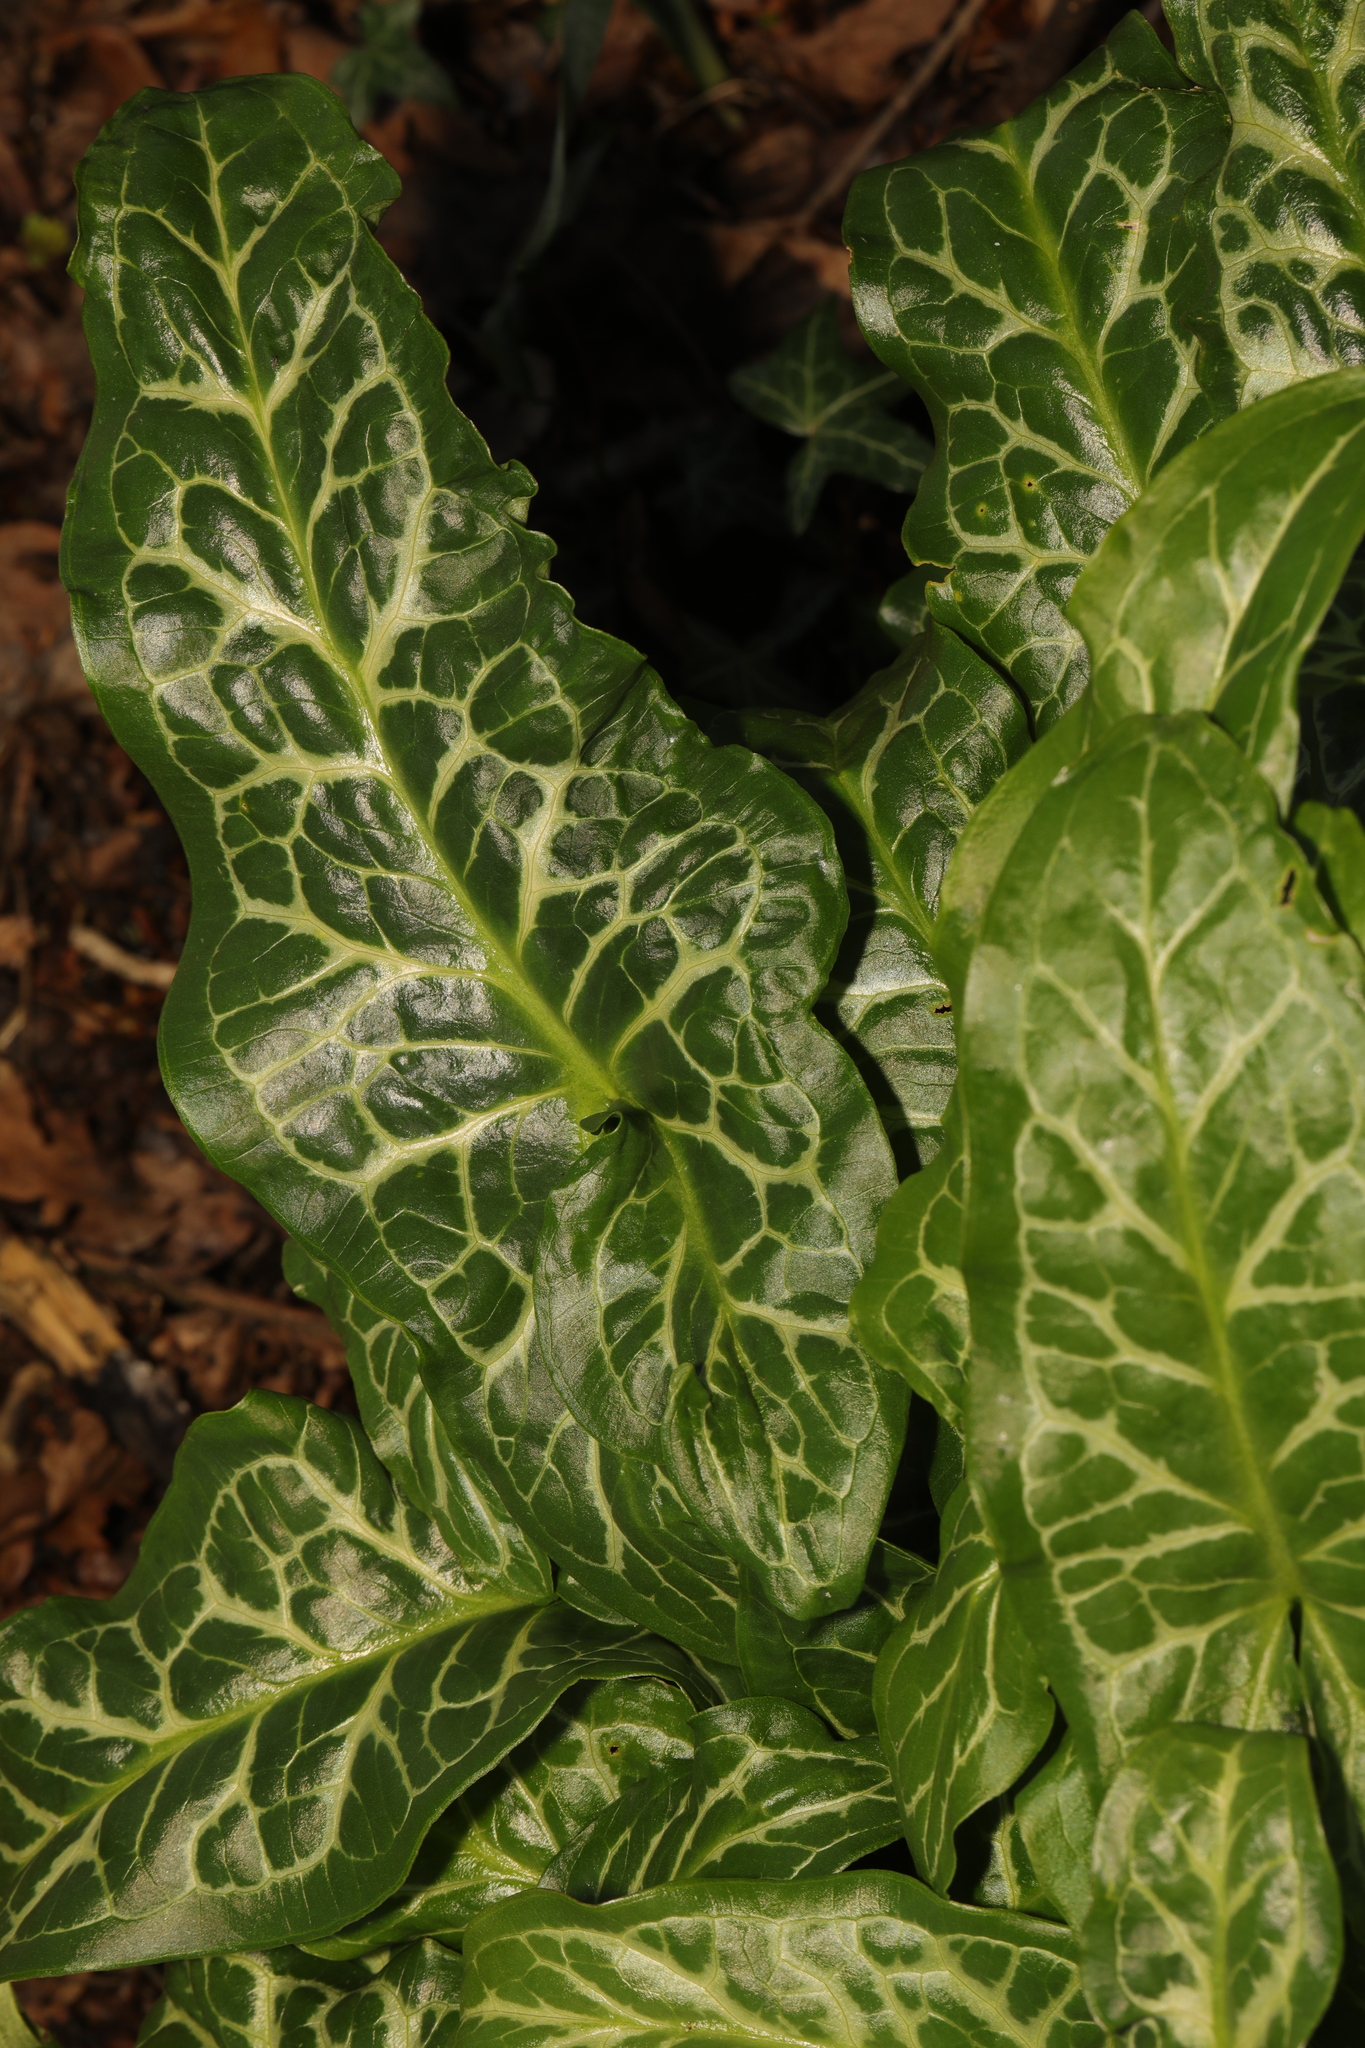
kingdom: Plantae
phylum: Tracheophyta
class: Liliopsida
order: Alismatales
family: Araceae
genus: Arum
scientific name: Arum italicum
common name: Italian lords-and-ladies
